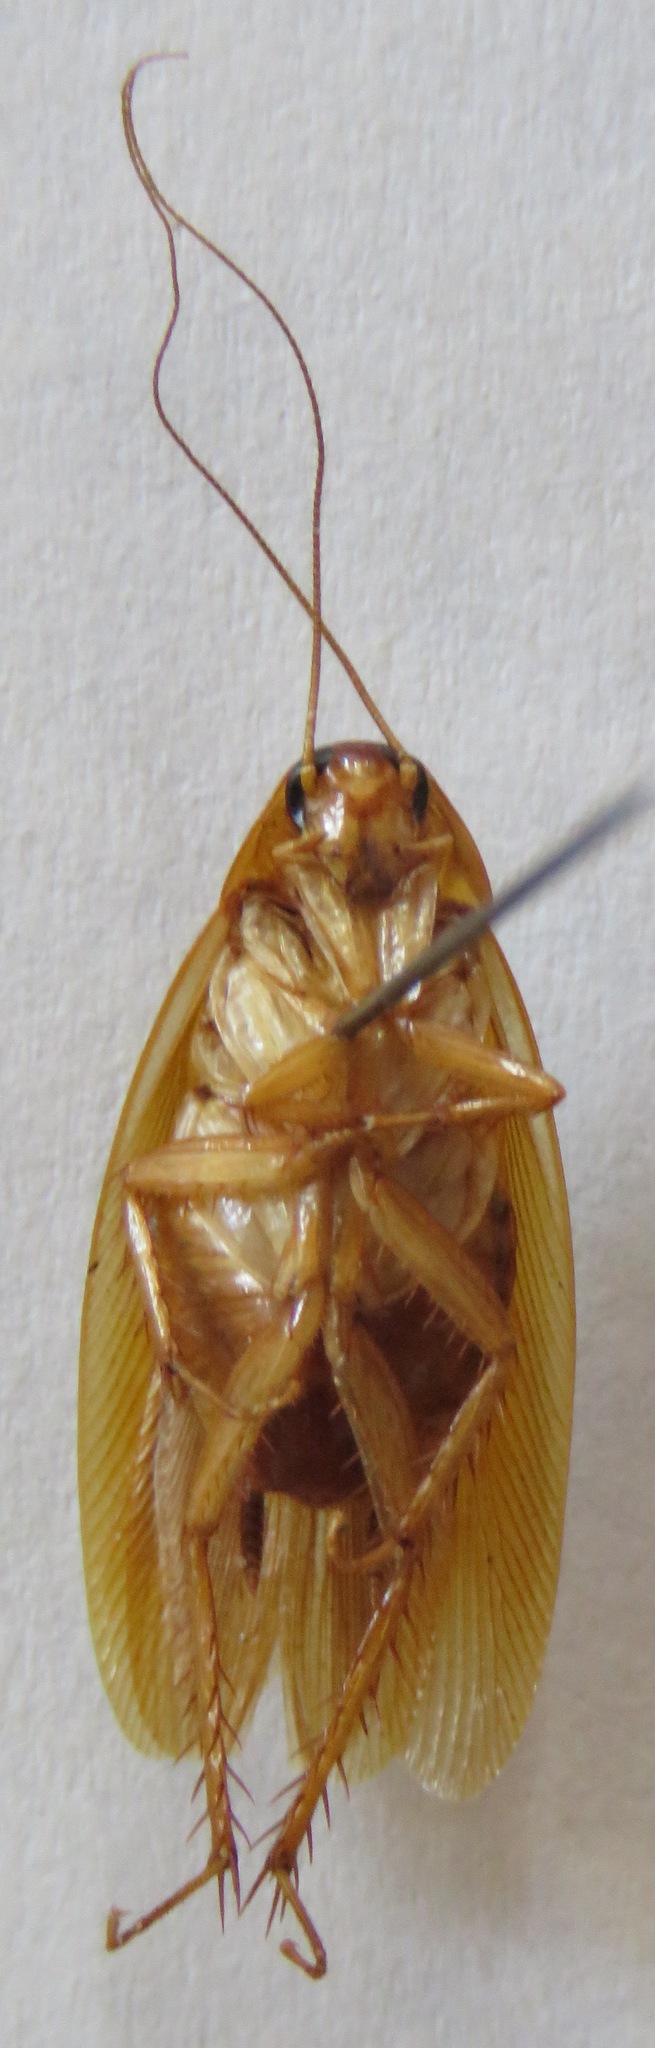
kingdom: Animalia
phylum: Arthropoda
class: Insecta
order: Blattodea
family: Ectobiidae
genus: Xestoblatta
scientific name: Xestoblatta hoplites
